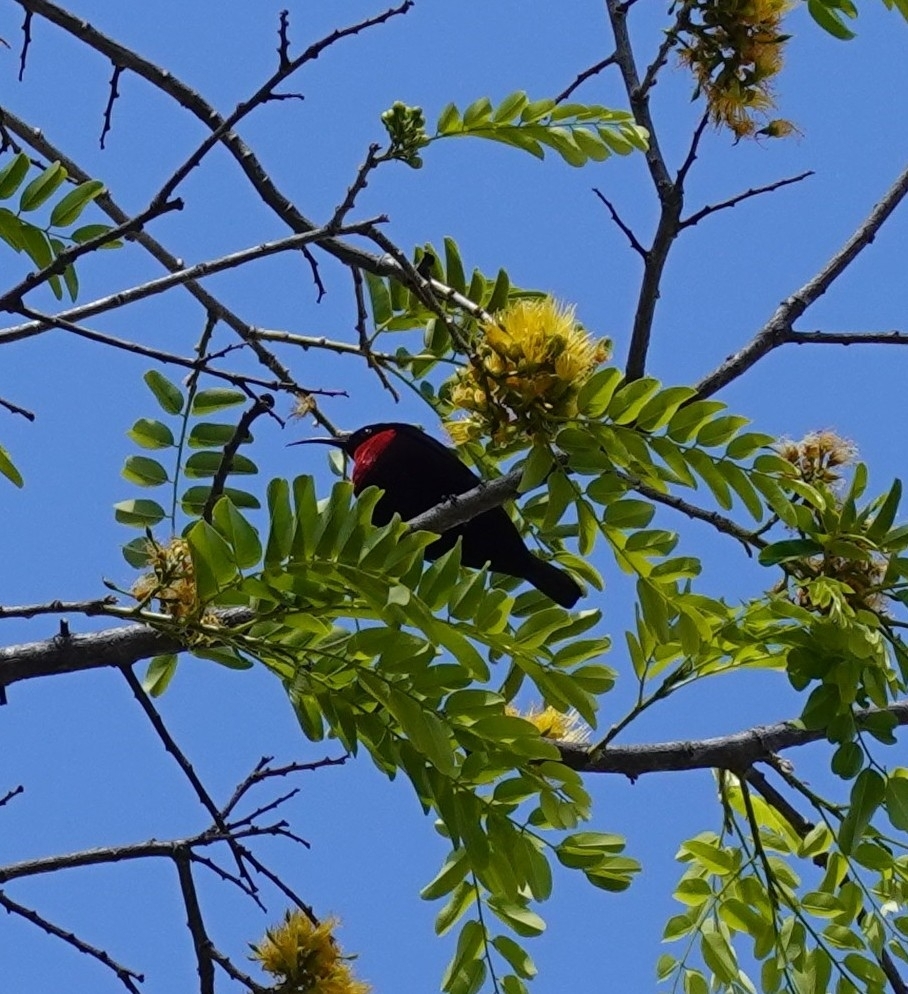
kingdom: Animalia
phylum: Chordata
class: Aves
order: Passeriformes
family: Nectariniidae
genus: Chalcomitra
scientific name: Chalcomitra senegalensis
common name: Scarlet-chested sunbird
